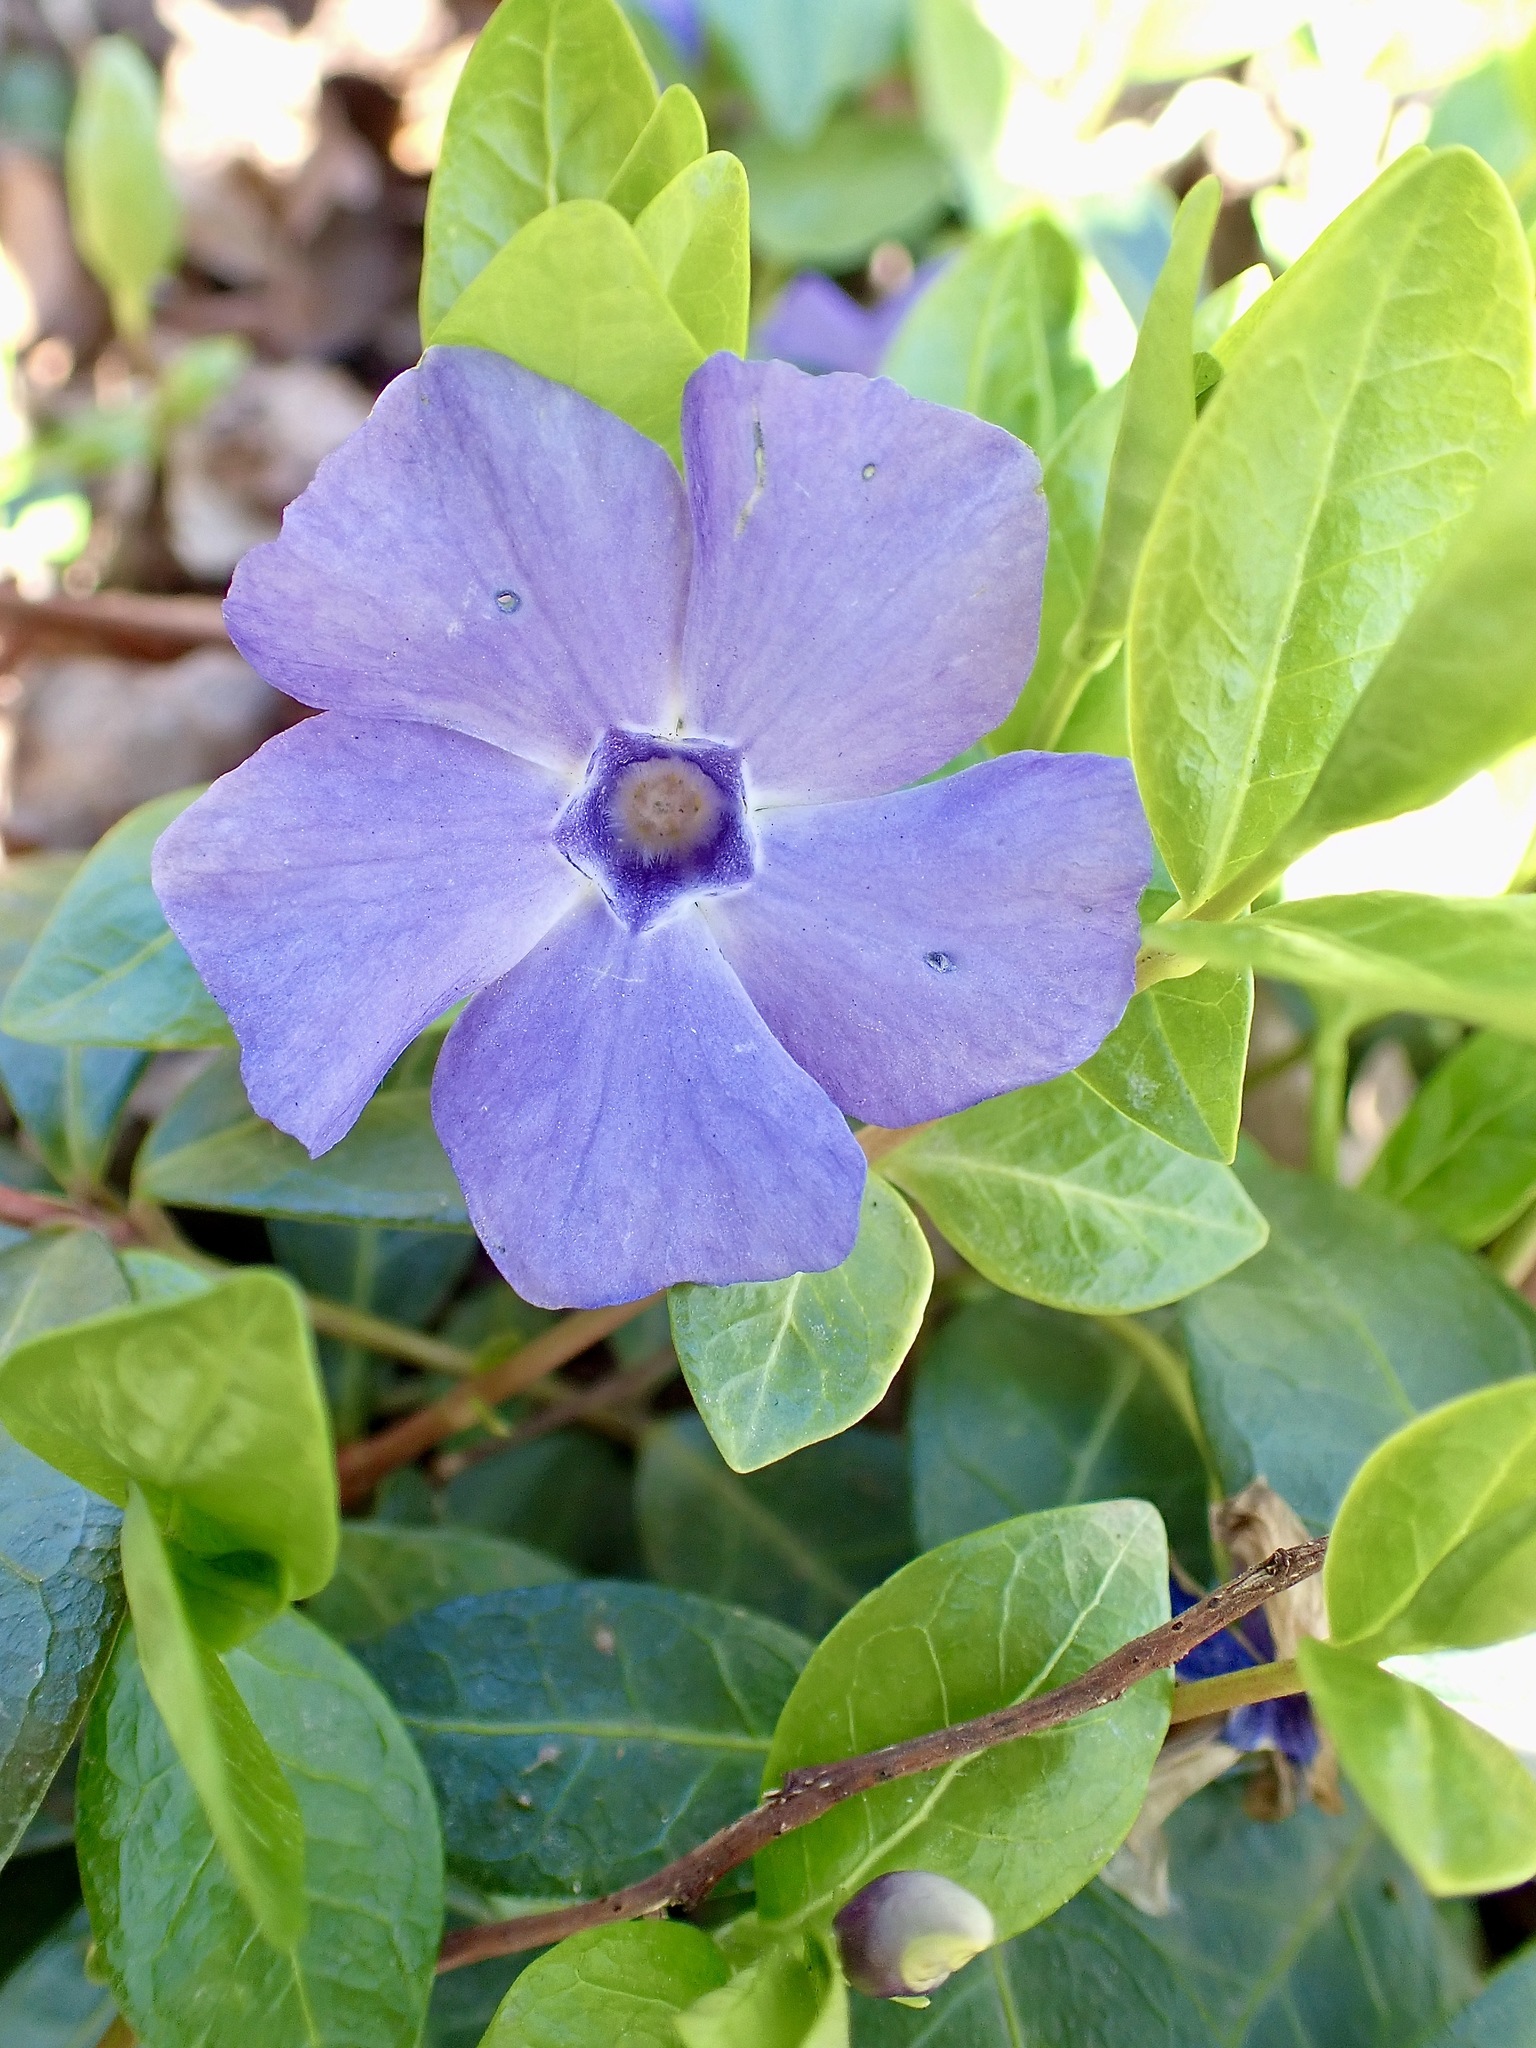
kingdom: Plantae
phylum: Tracheophyta
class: Magnoliopsida
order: Gentianales
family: Apocynaceae
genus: Vinca
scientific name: Vinca minor
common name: Lesser periwinkle
